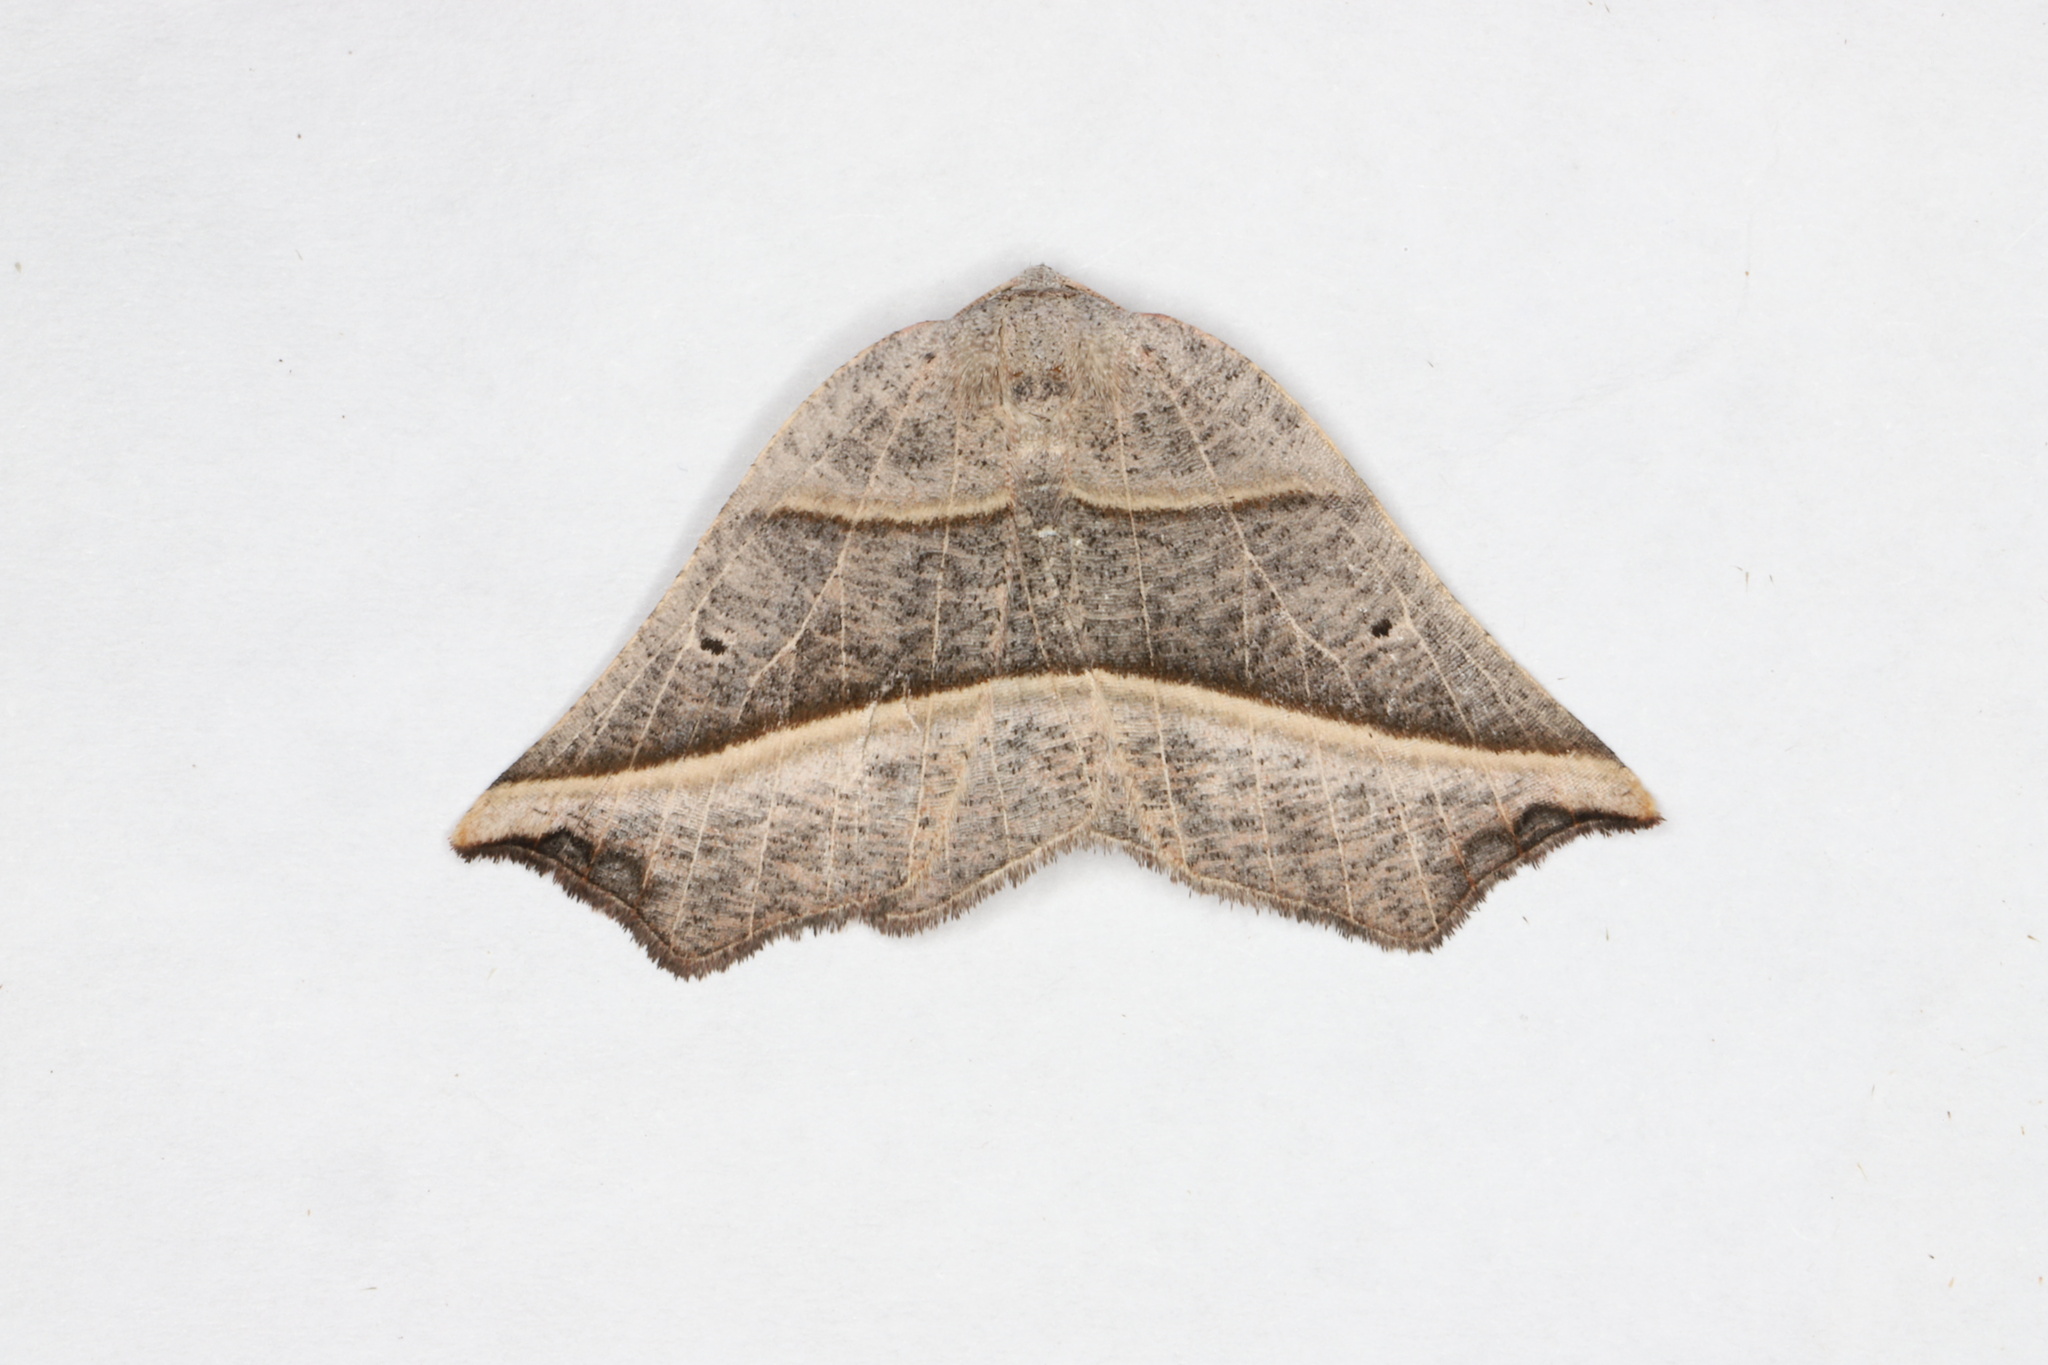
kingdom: Animalia
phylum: Arthropoda
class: Insecta
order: Lepidoptera
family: Geometridae
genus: Metanema
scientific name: Metanema determinata
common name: Dark metanema
